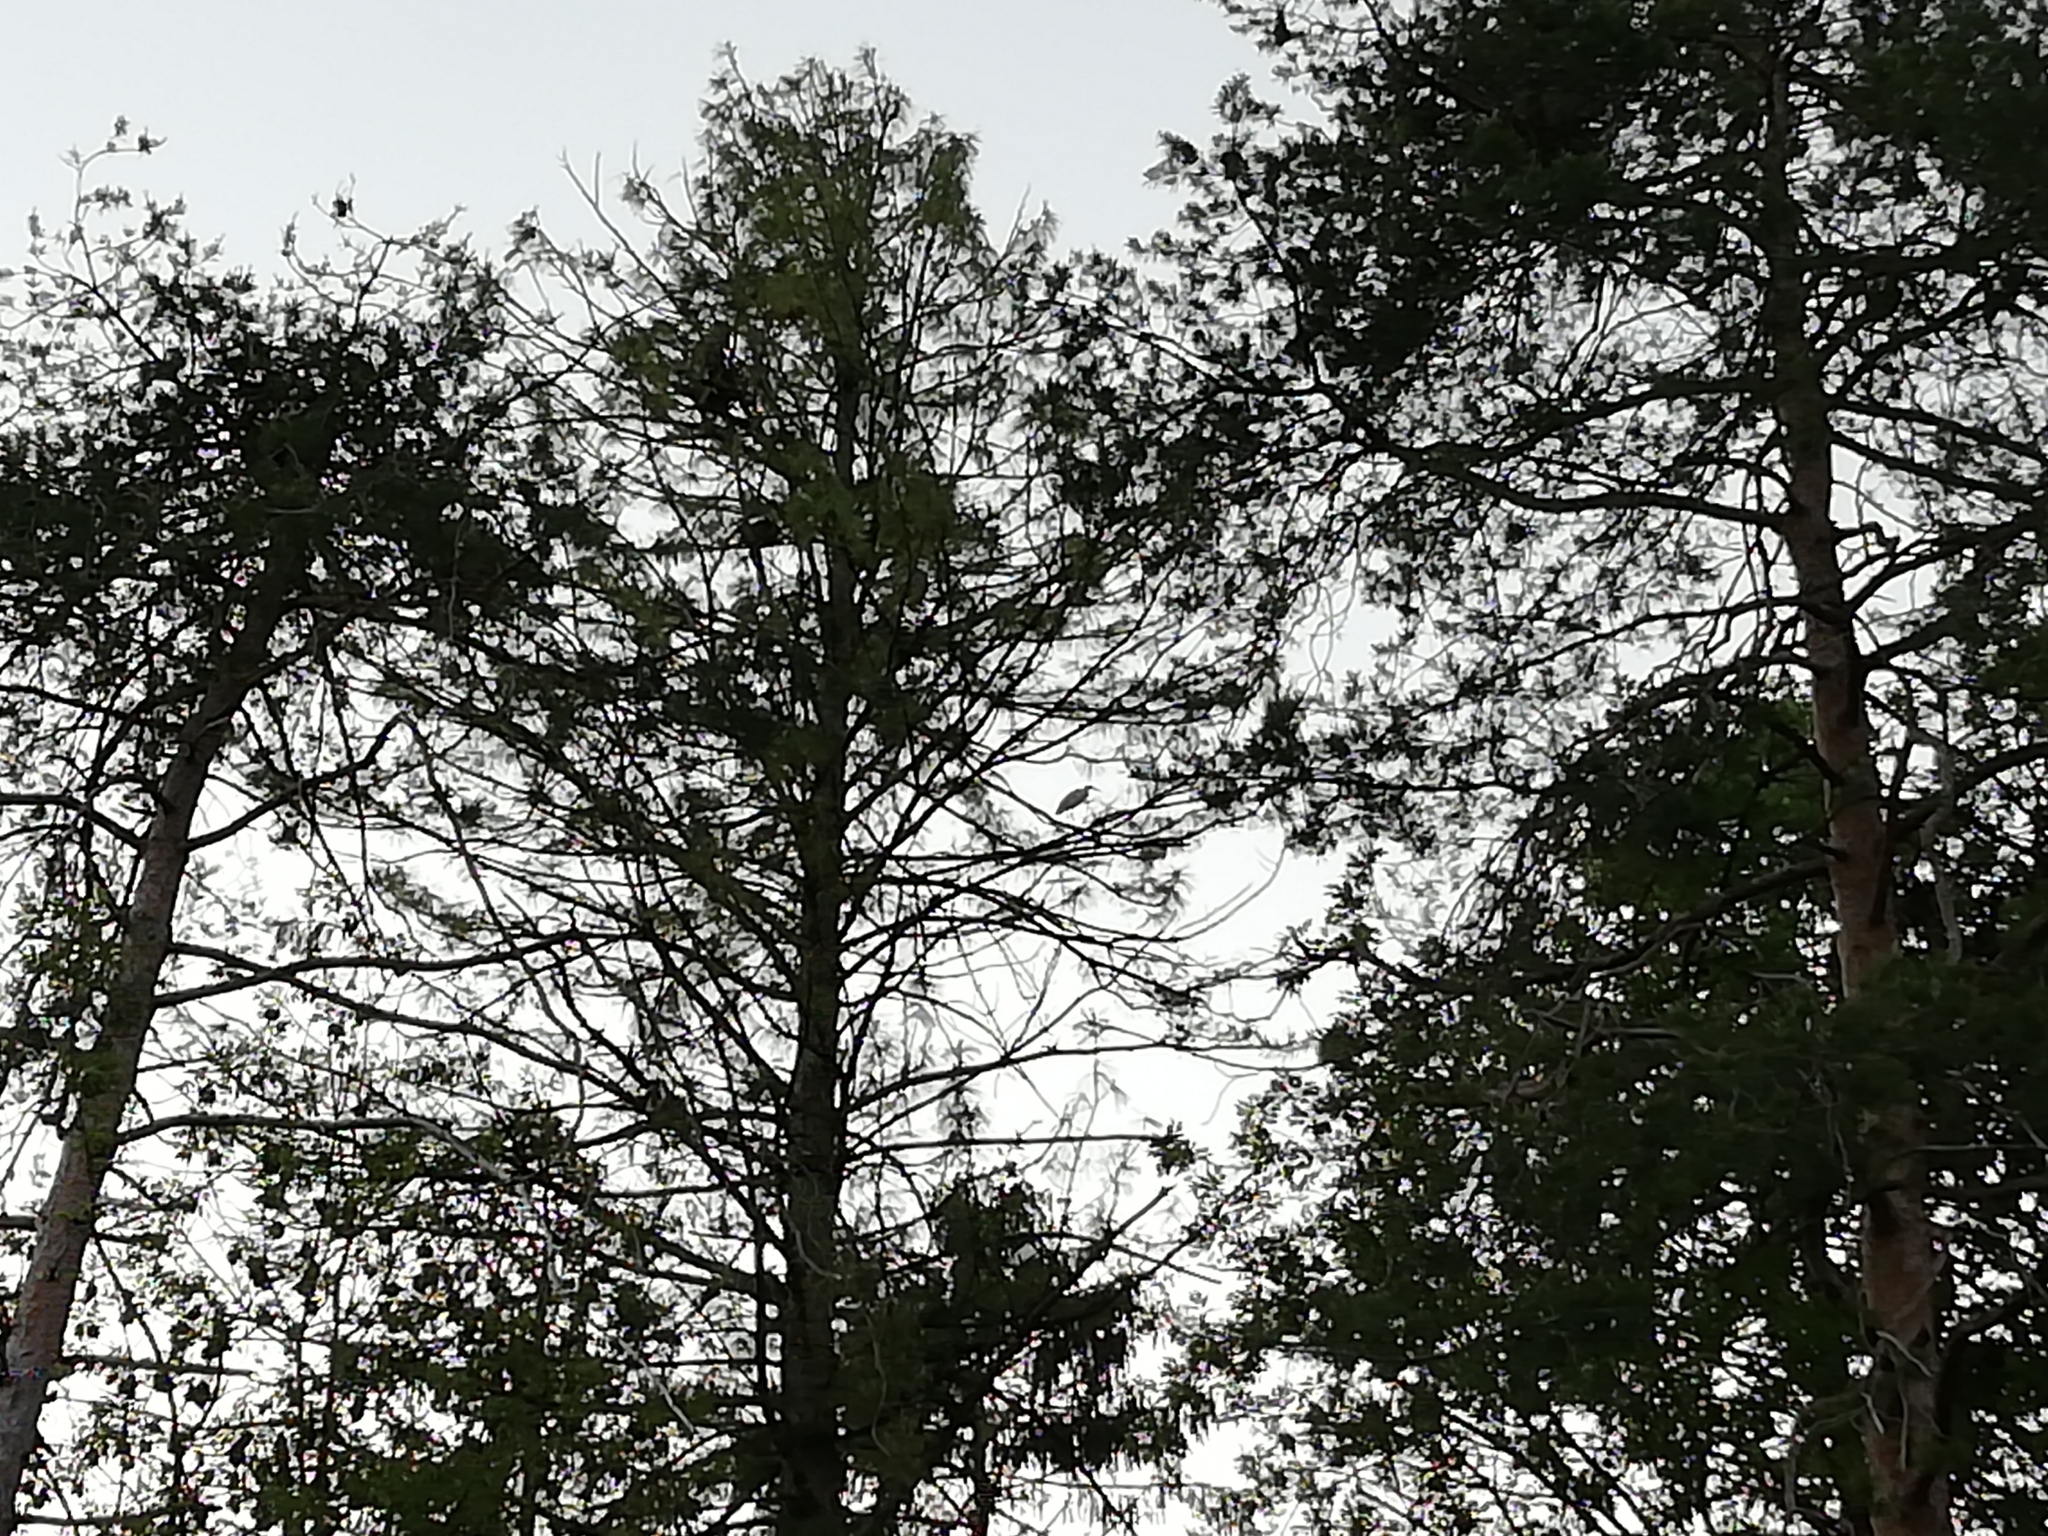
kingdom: Animalia
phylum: Chordata
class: Aves
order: Pelecaniformes
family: Ardeidae
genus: Ardea
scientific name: Ardea cinerea
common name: Grey heron
